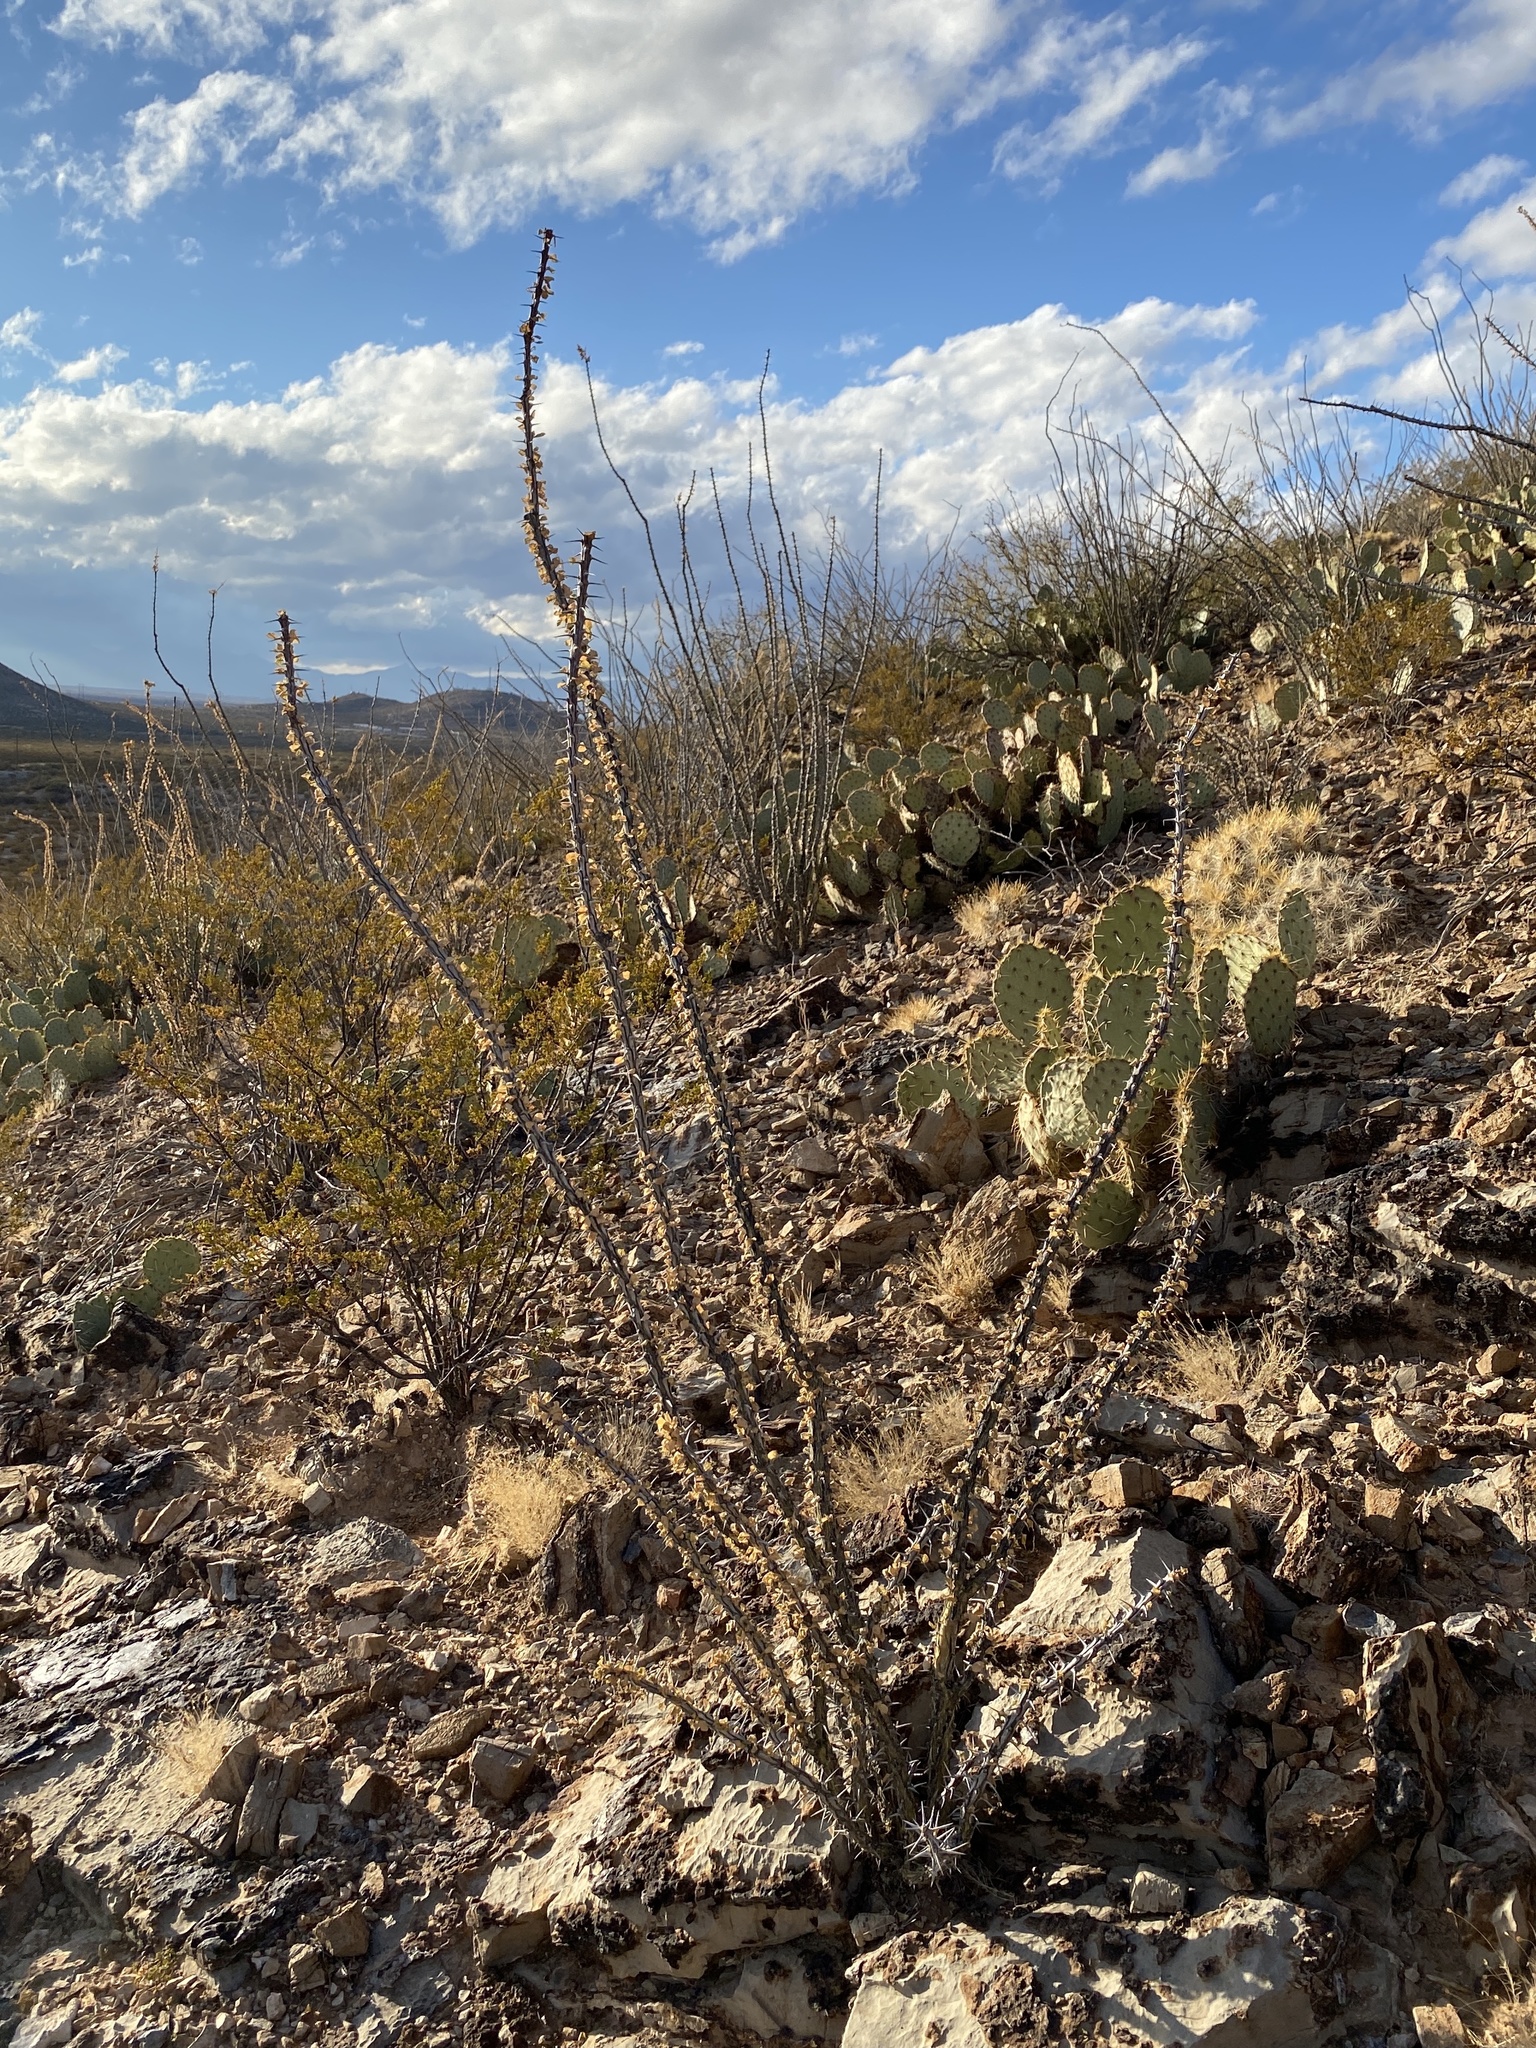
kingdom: Plantae
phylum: Tracheophyta
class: Magnoliopsida
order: Ericales
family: Fouquieriaceae
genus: Fouquieria
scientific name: Fouquieria splendens
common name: Vine-cactus
